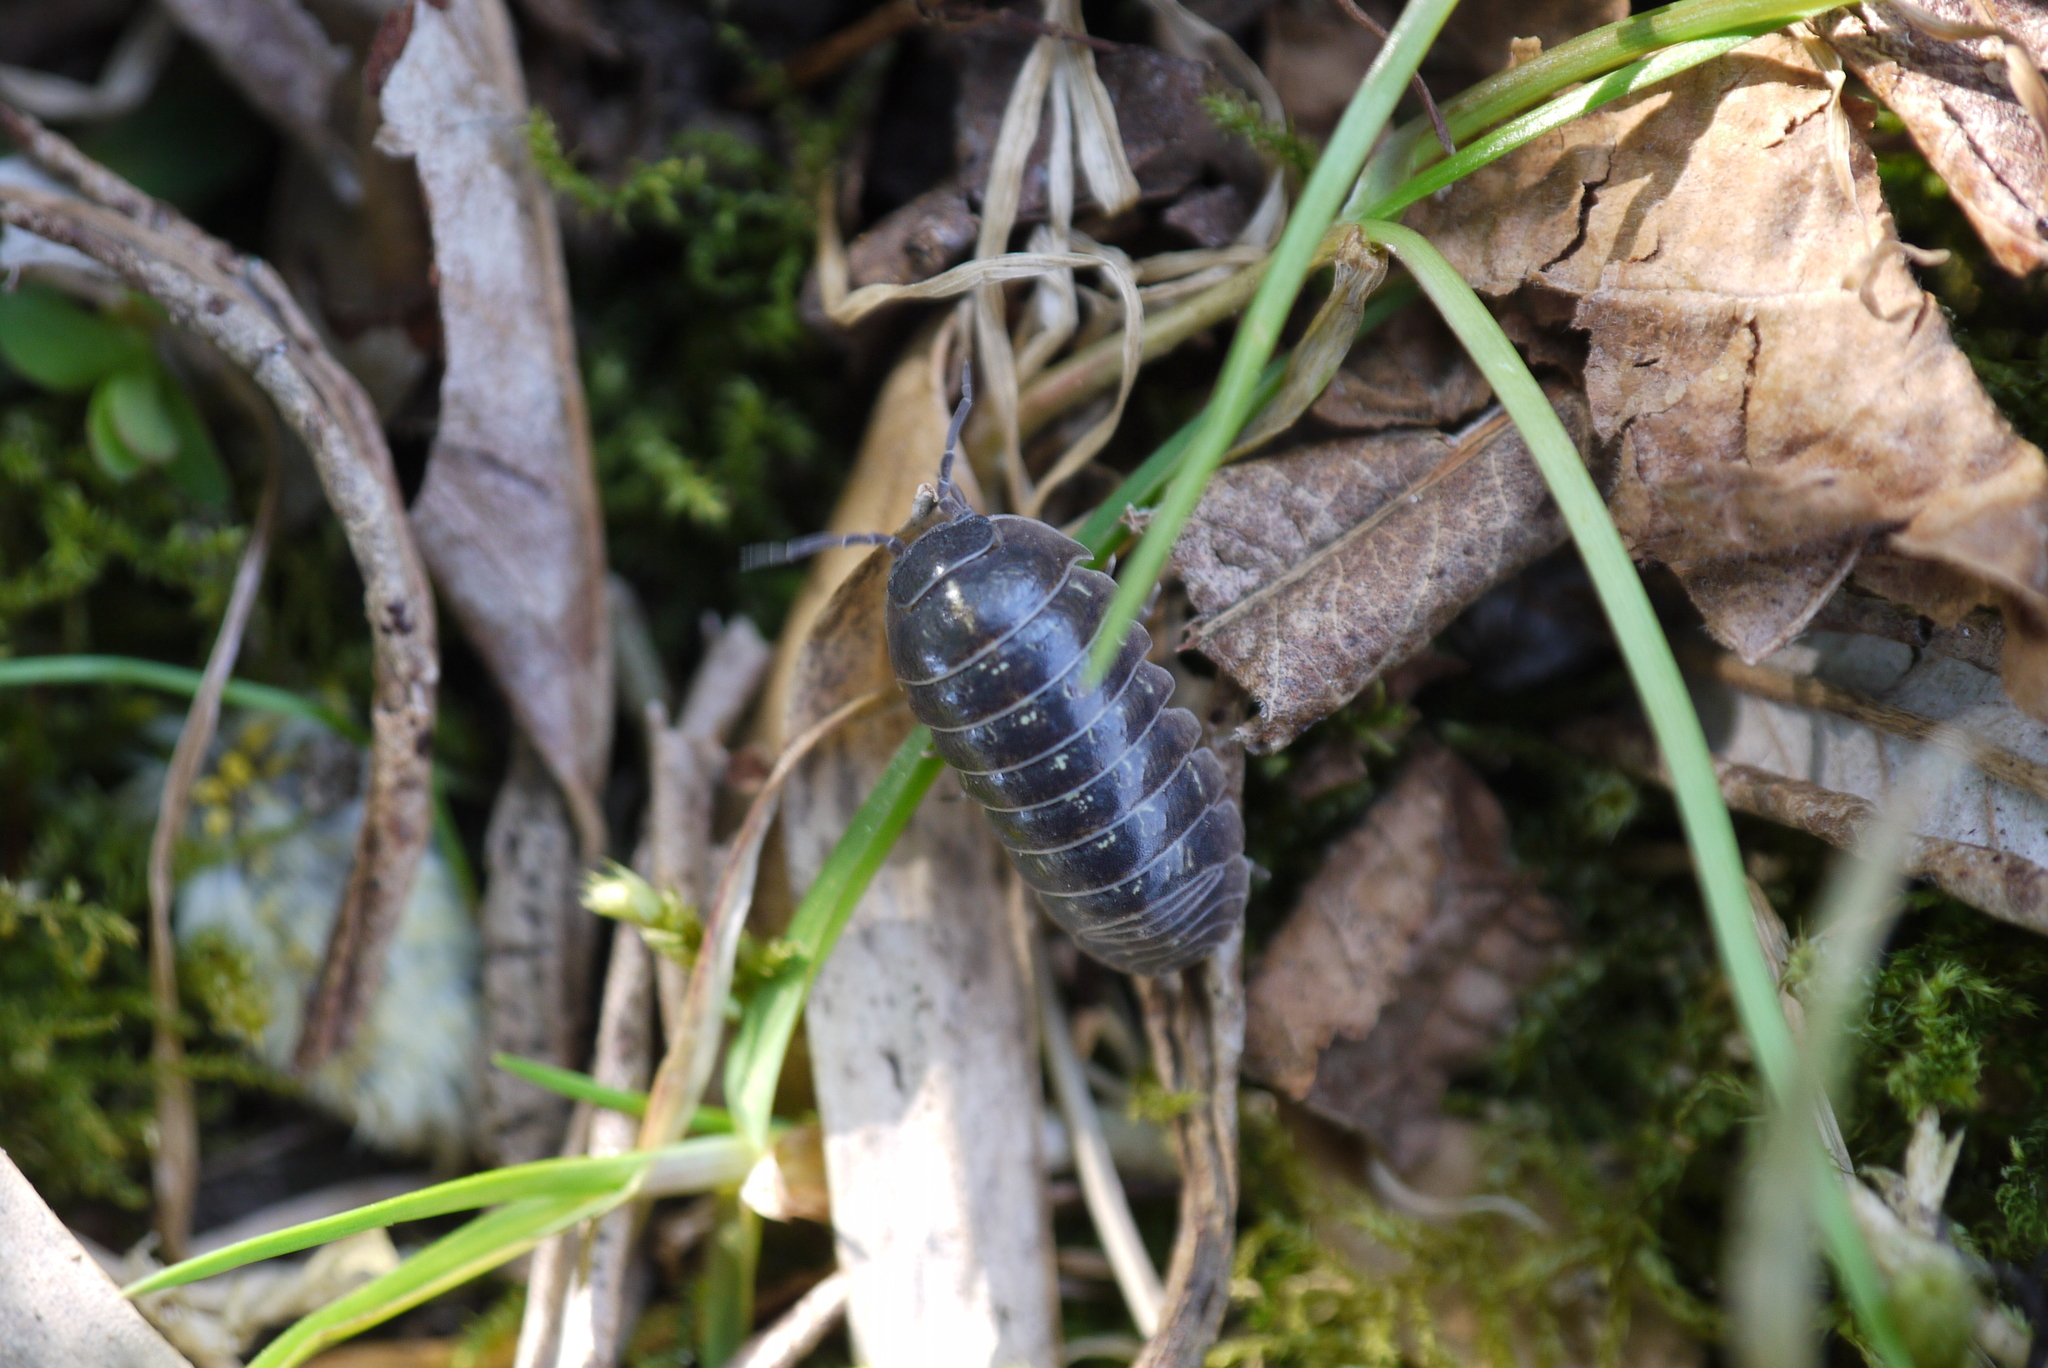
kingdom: Animalia
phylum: Arthropoda
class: Malacostraca
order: Isopoda
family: Armadillidiidae
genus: Armadillidium
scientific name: Armadillidium vulgare
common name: Common pill woodlouse
